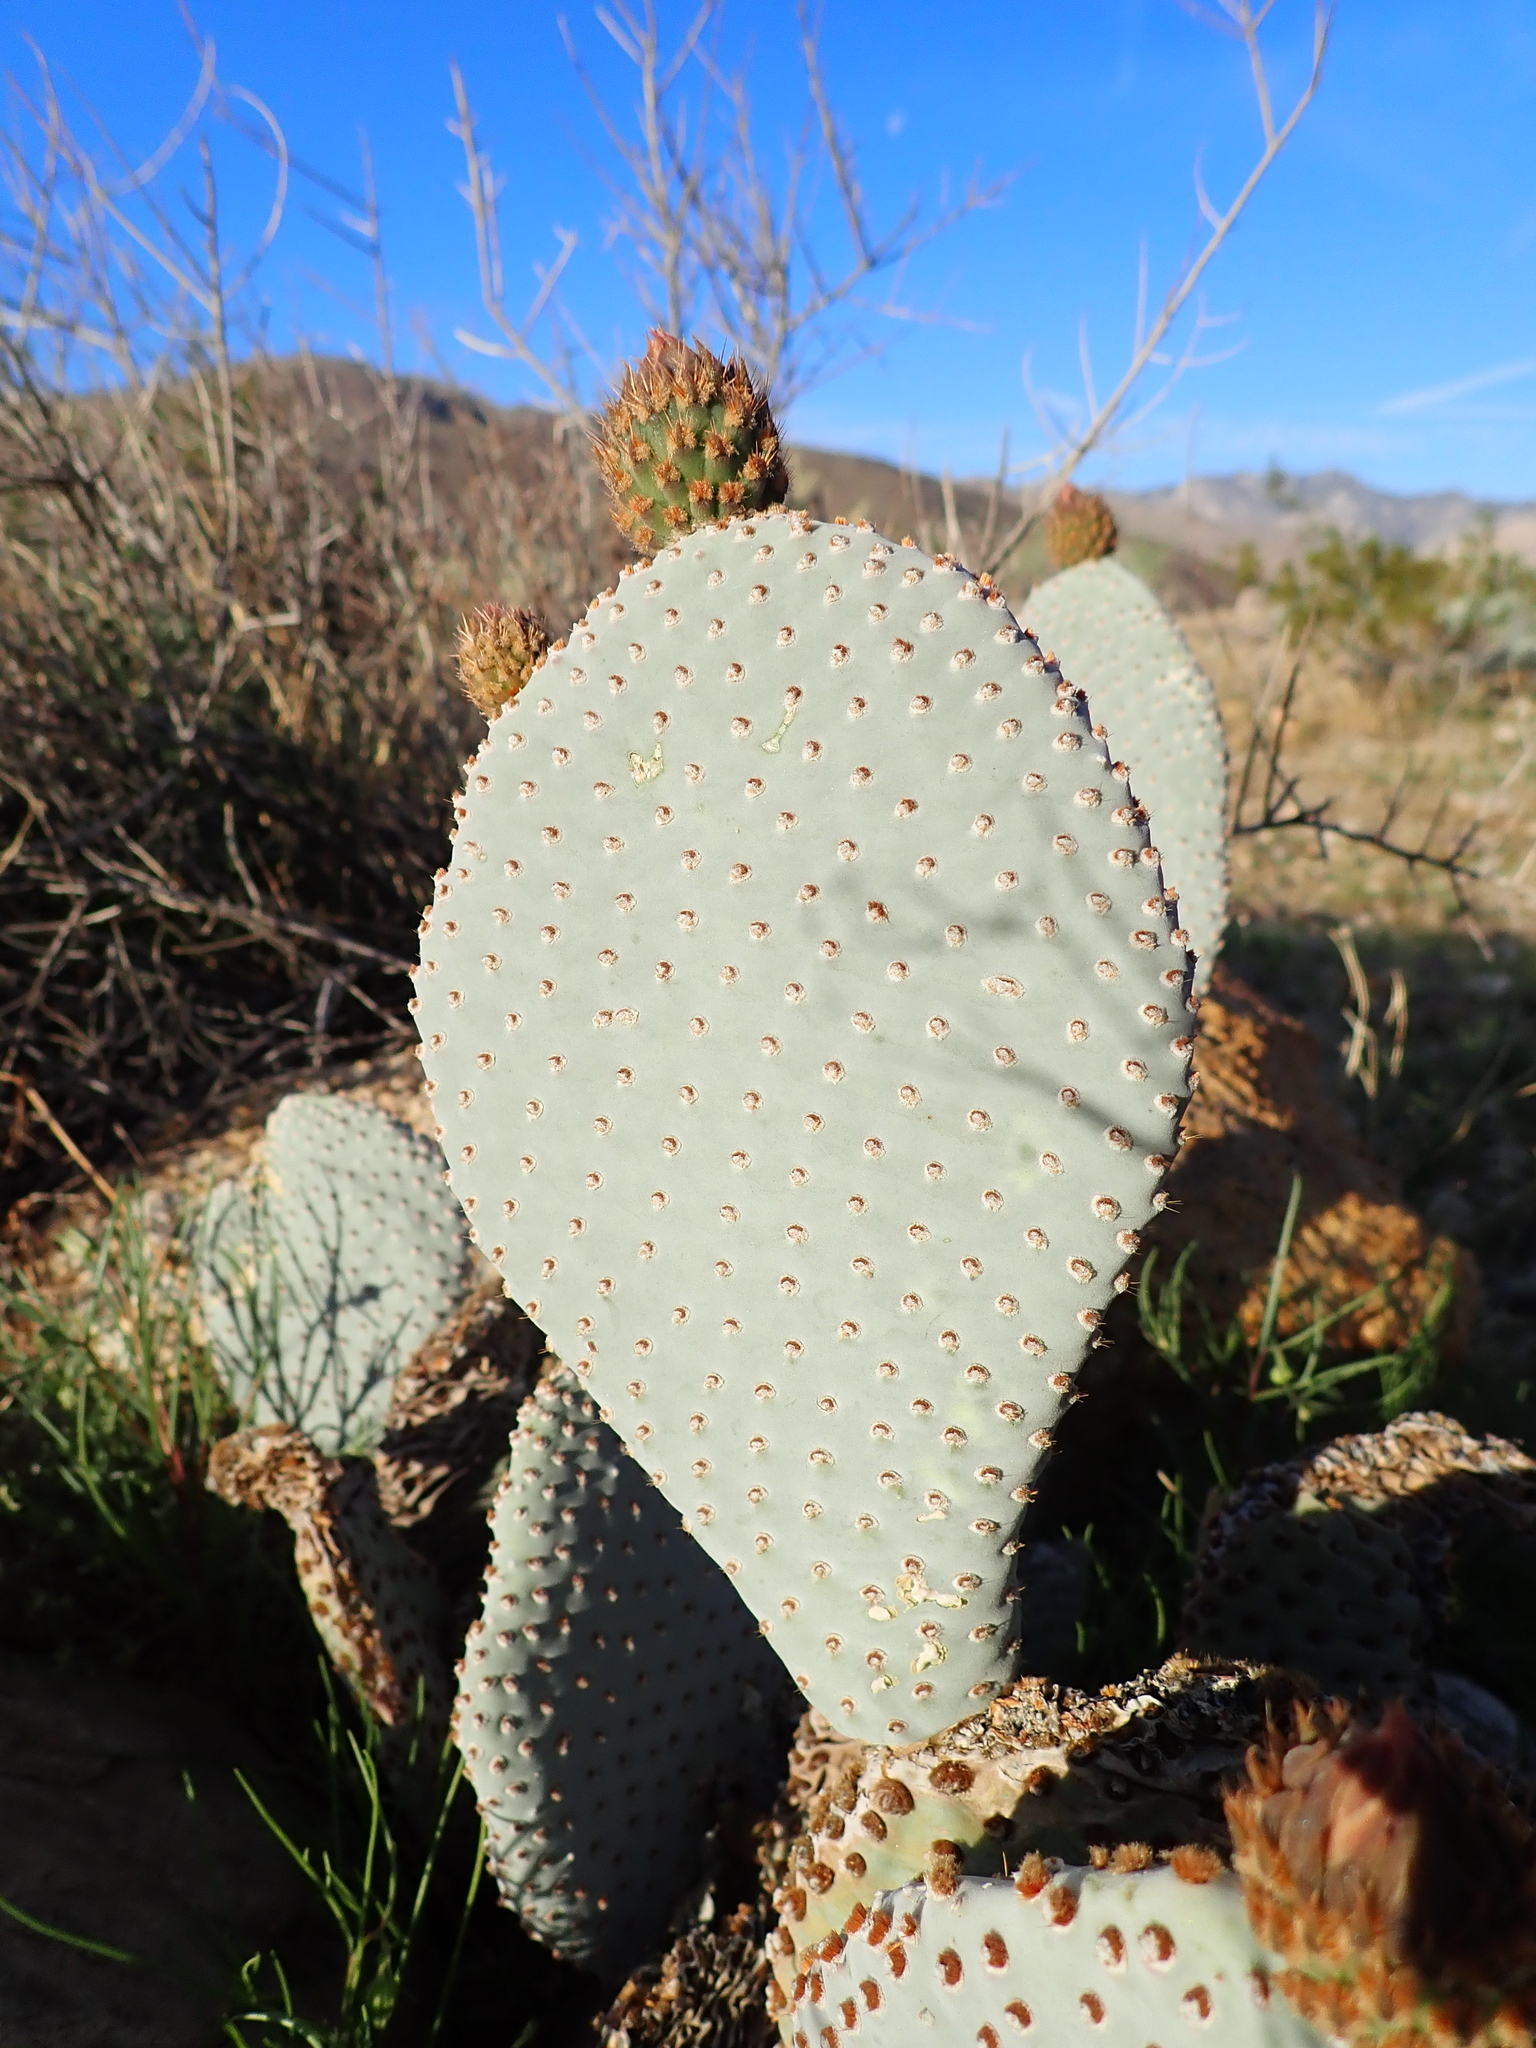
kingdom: Plantae
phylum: Tracheophyta
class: Magnoliopsida
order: Caryophyllales
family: Cactaceae
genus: Opuntia
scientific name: Opuntia basilaris
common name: Beavertail prickly-pear
